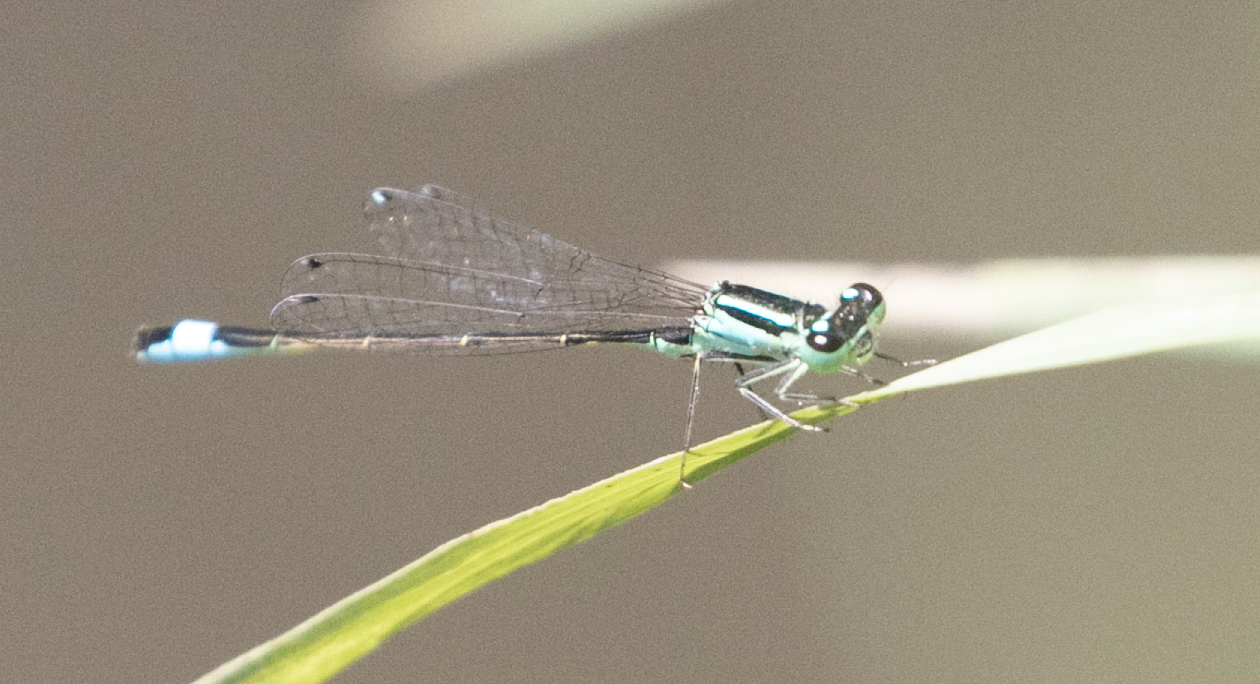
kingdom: Animalia
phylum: Arthropoda
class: Insecta
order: Odonata
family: Coenagrionidae
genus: Ischnura
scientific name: Ischnura elegans
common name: Blue-tailed damselfly
